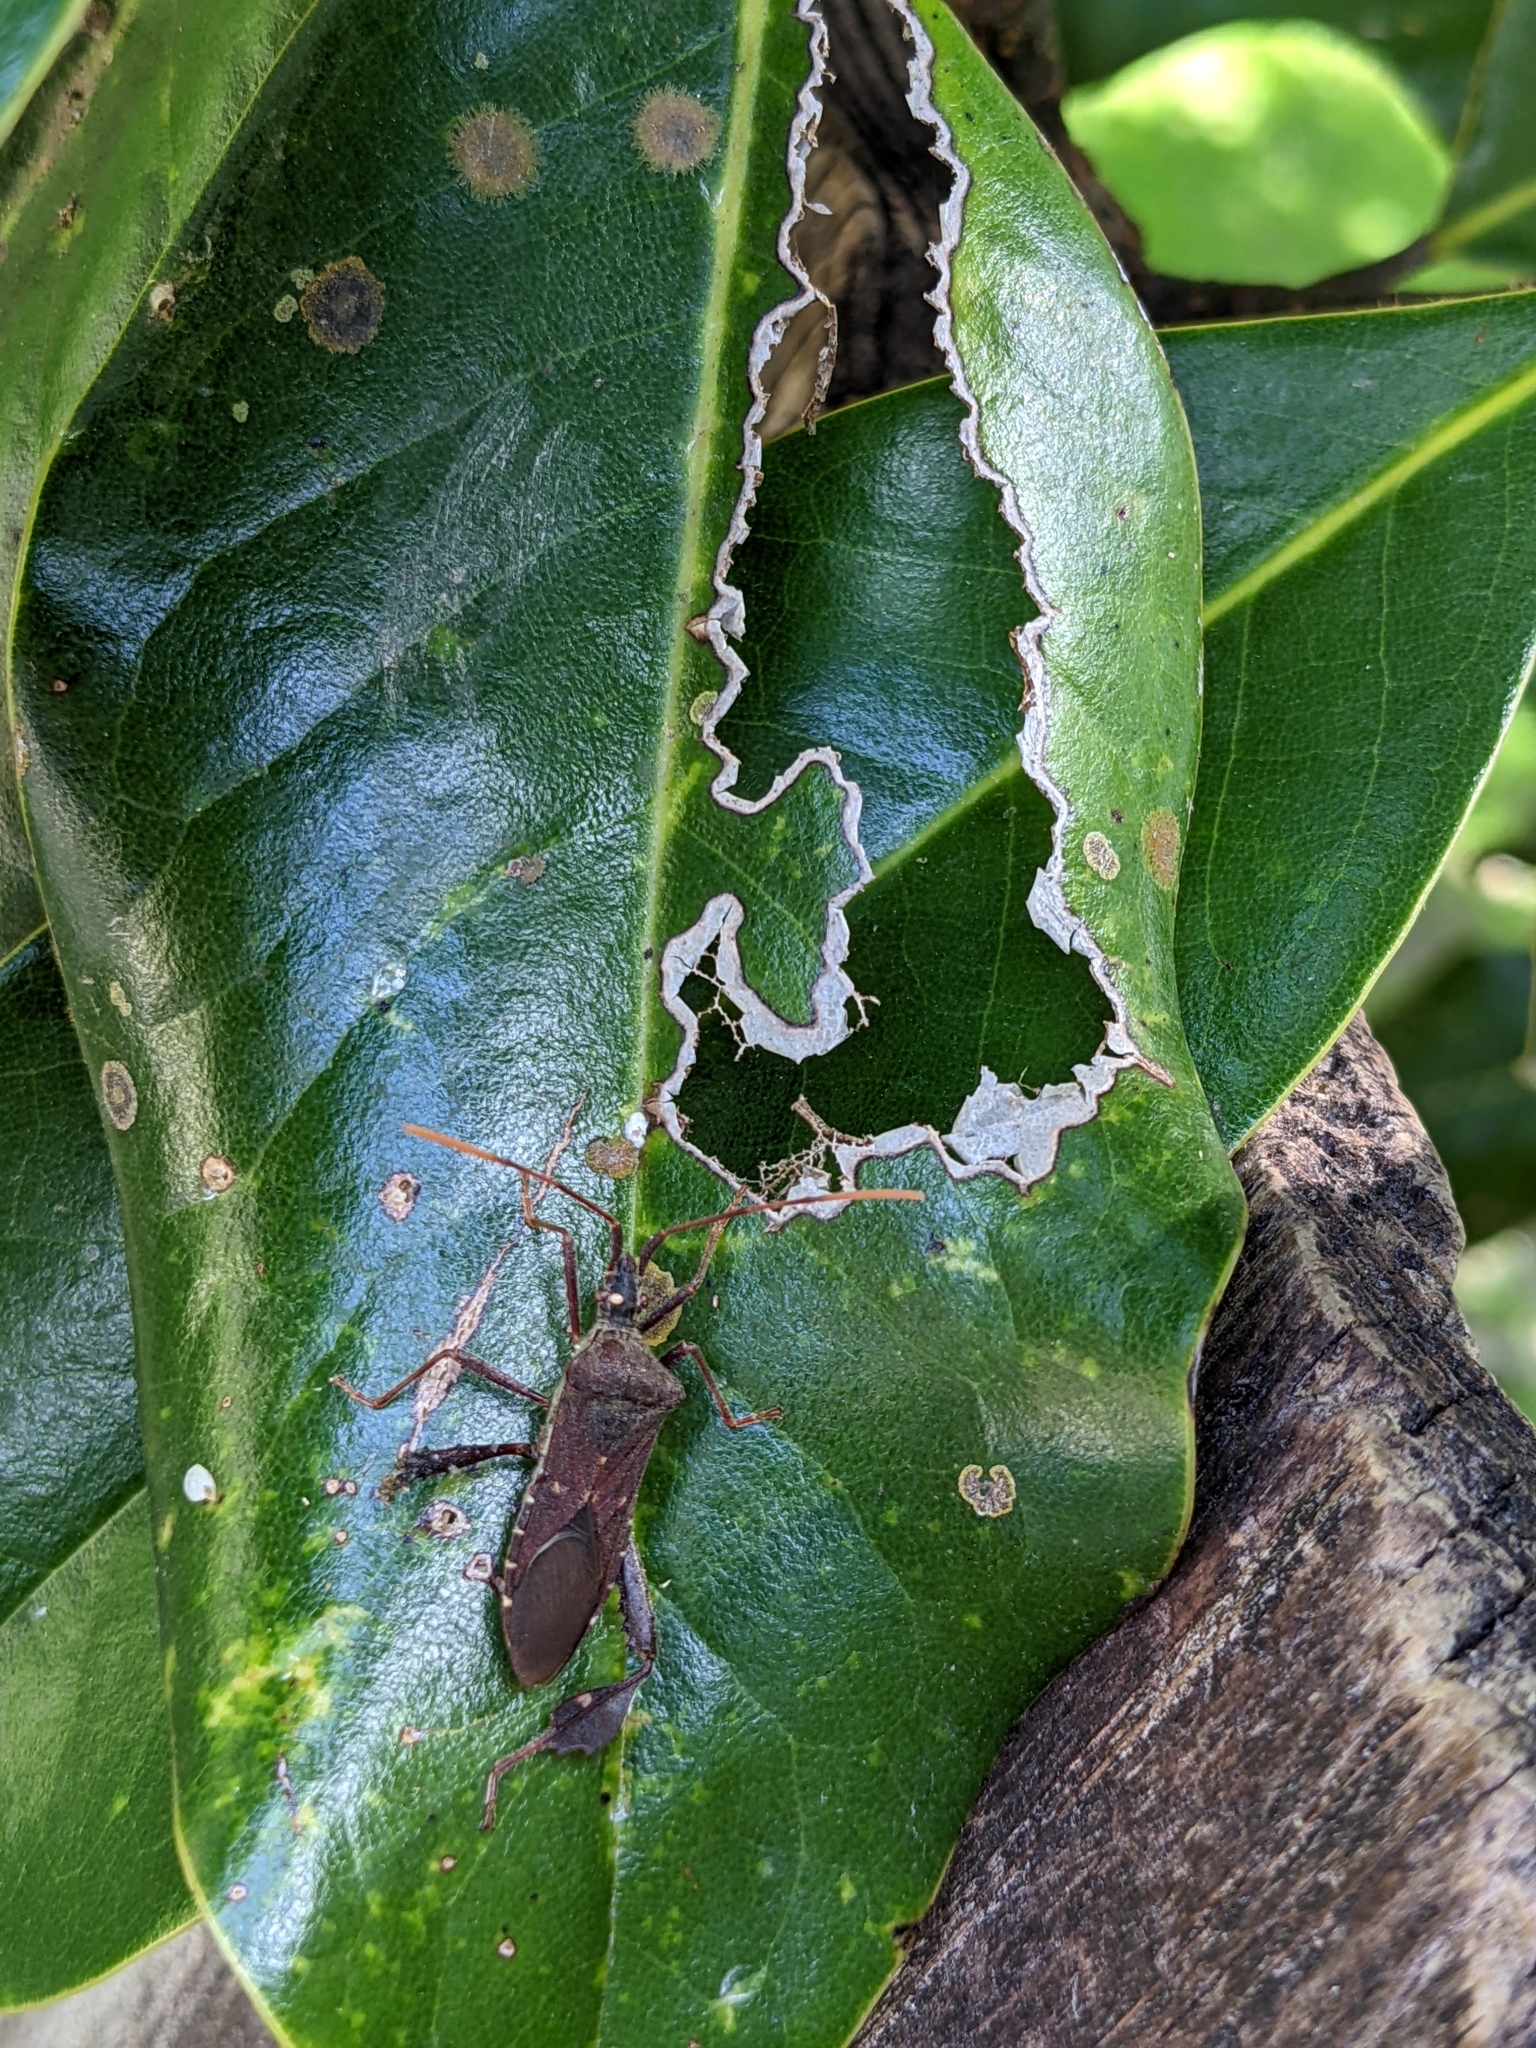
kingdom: Animalia
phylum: Arthropoda
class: Insecta
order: Hemiptera
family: Coreidae
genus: Leptoglossus
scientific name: Leptoglossus oppositus
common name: Northern leaf-footed bug
